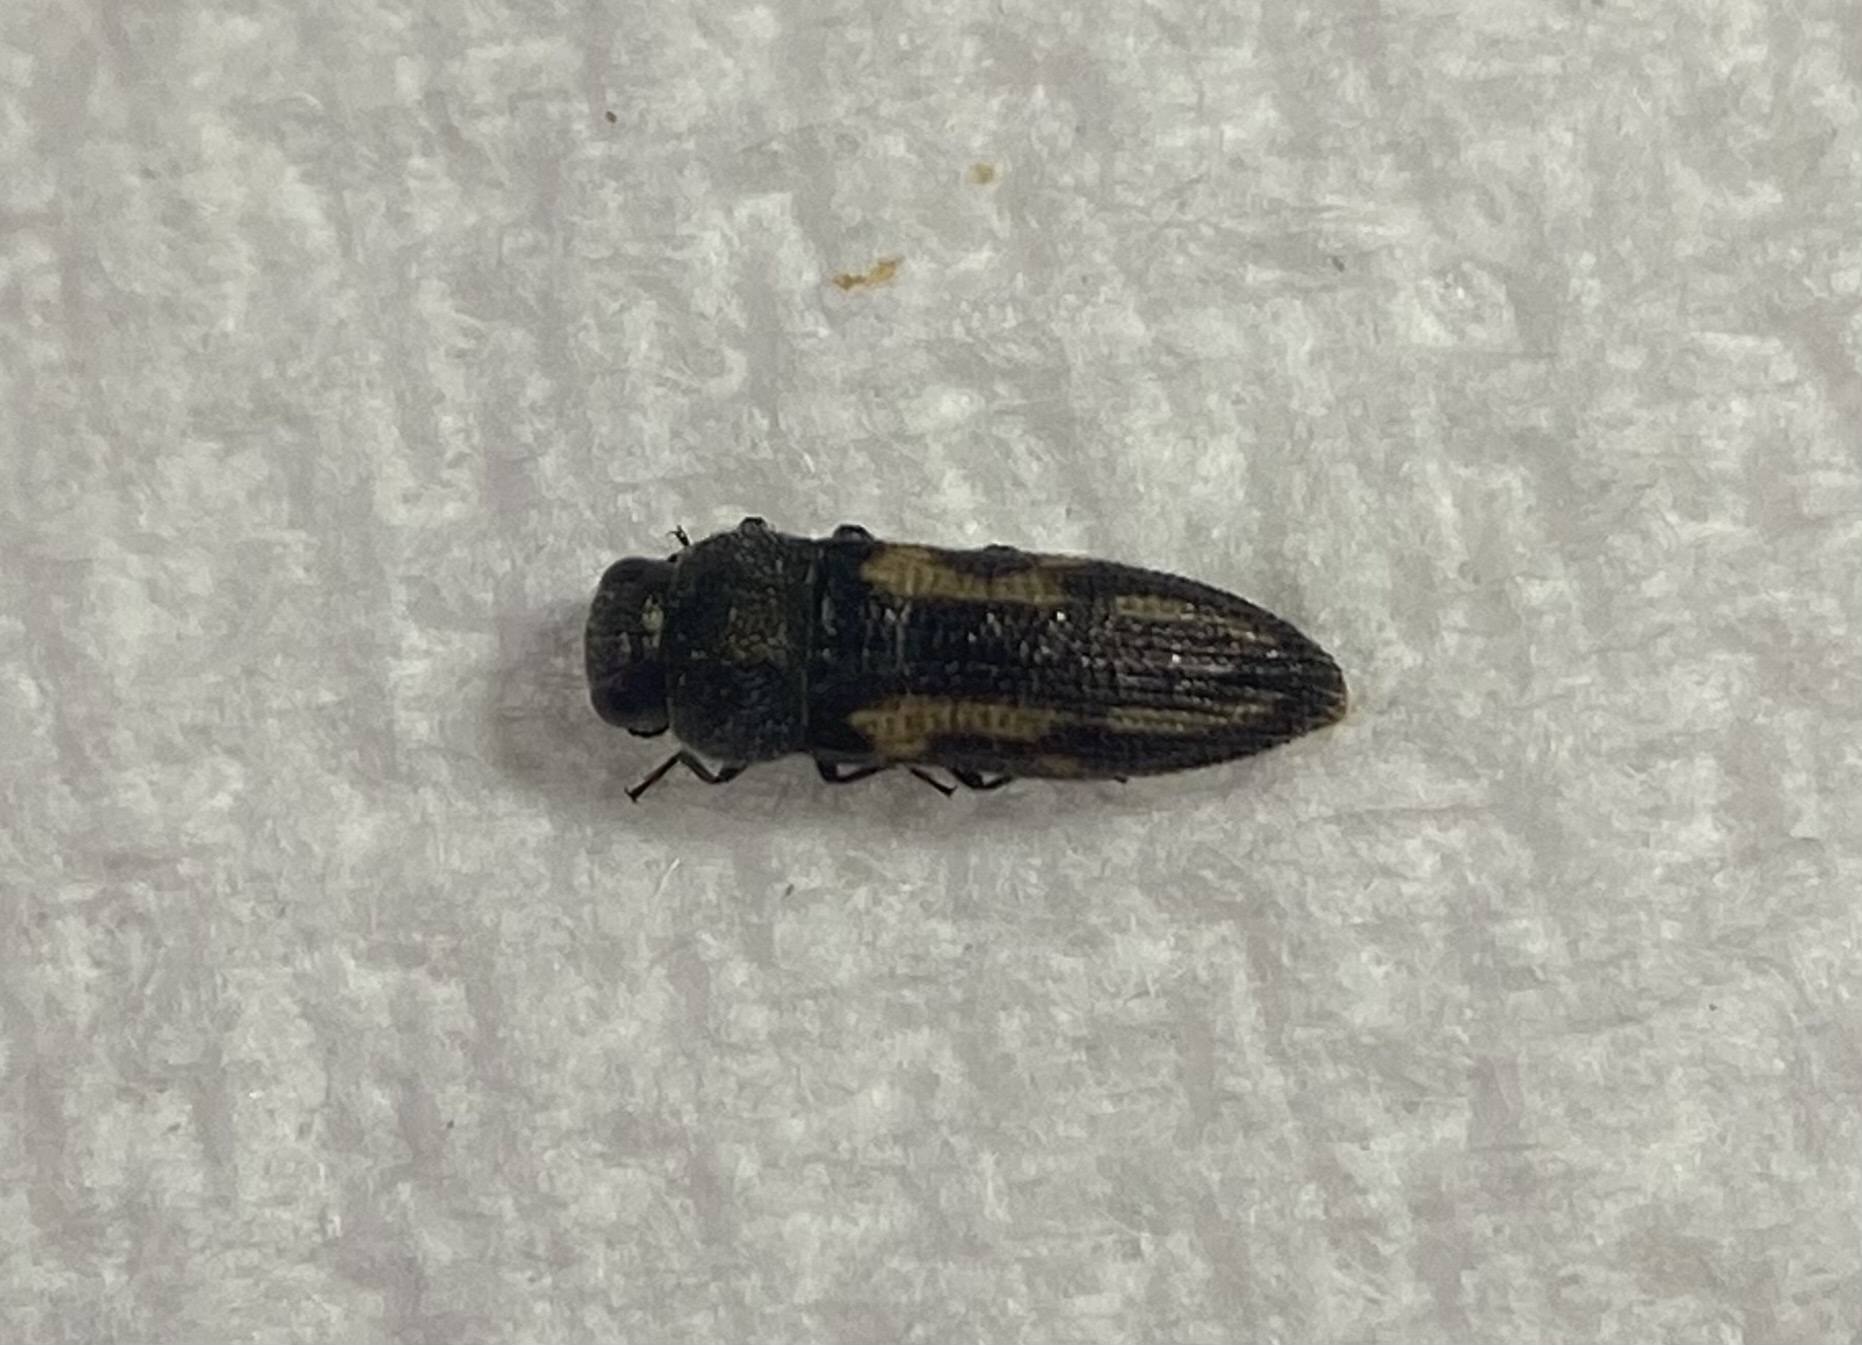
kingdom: Animalia
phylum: Arthropoda
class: Insecta
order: Coleoptera
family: Buprestidae
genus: Acmaeodera
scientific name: Acmaeodera ligulata
